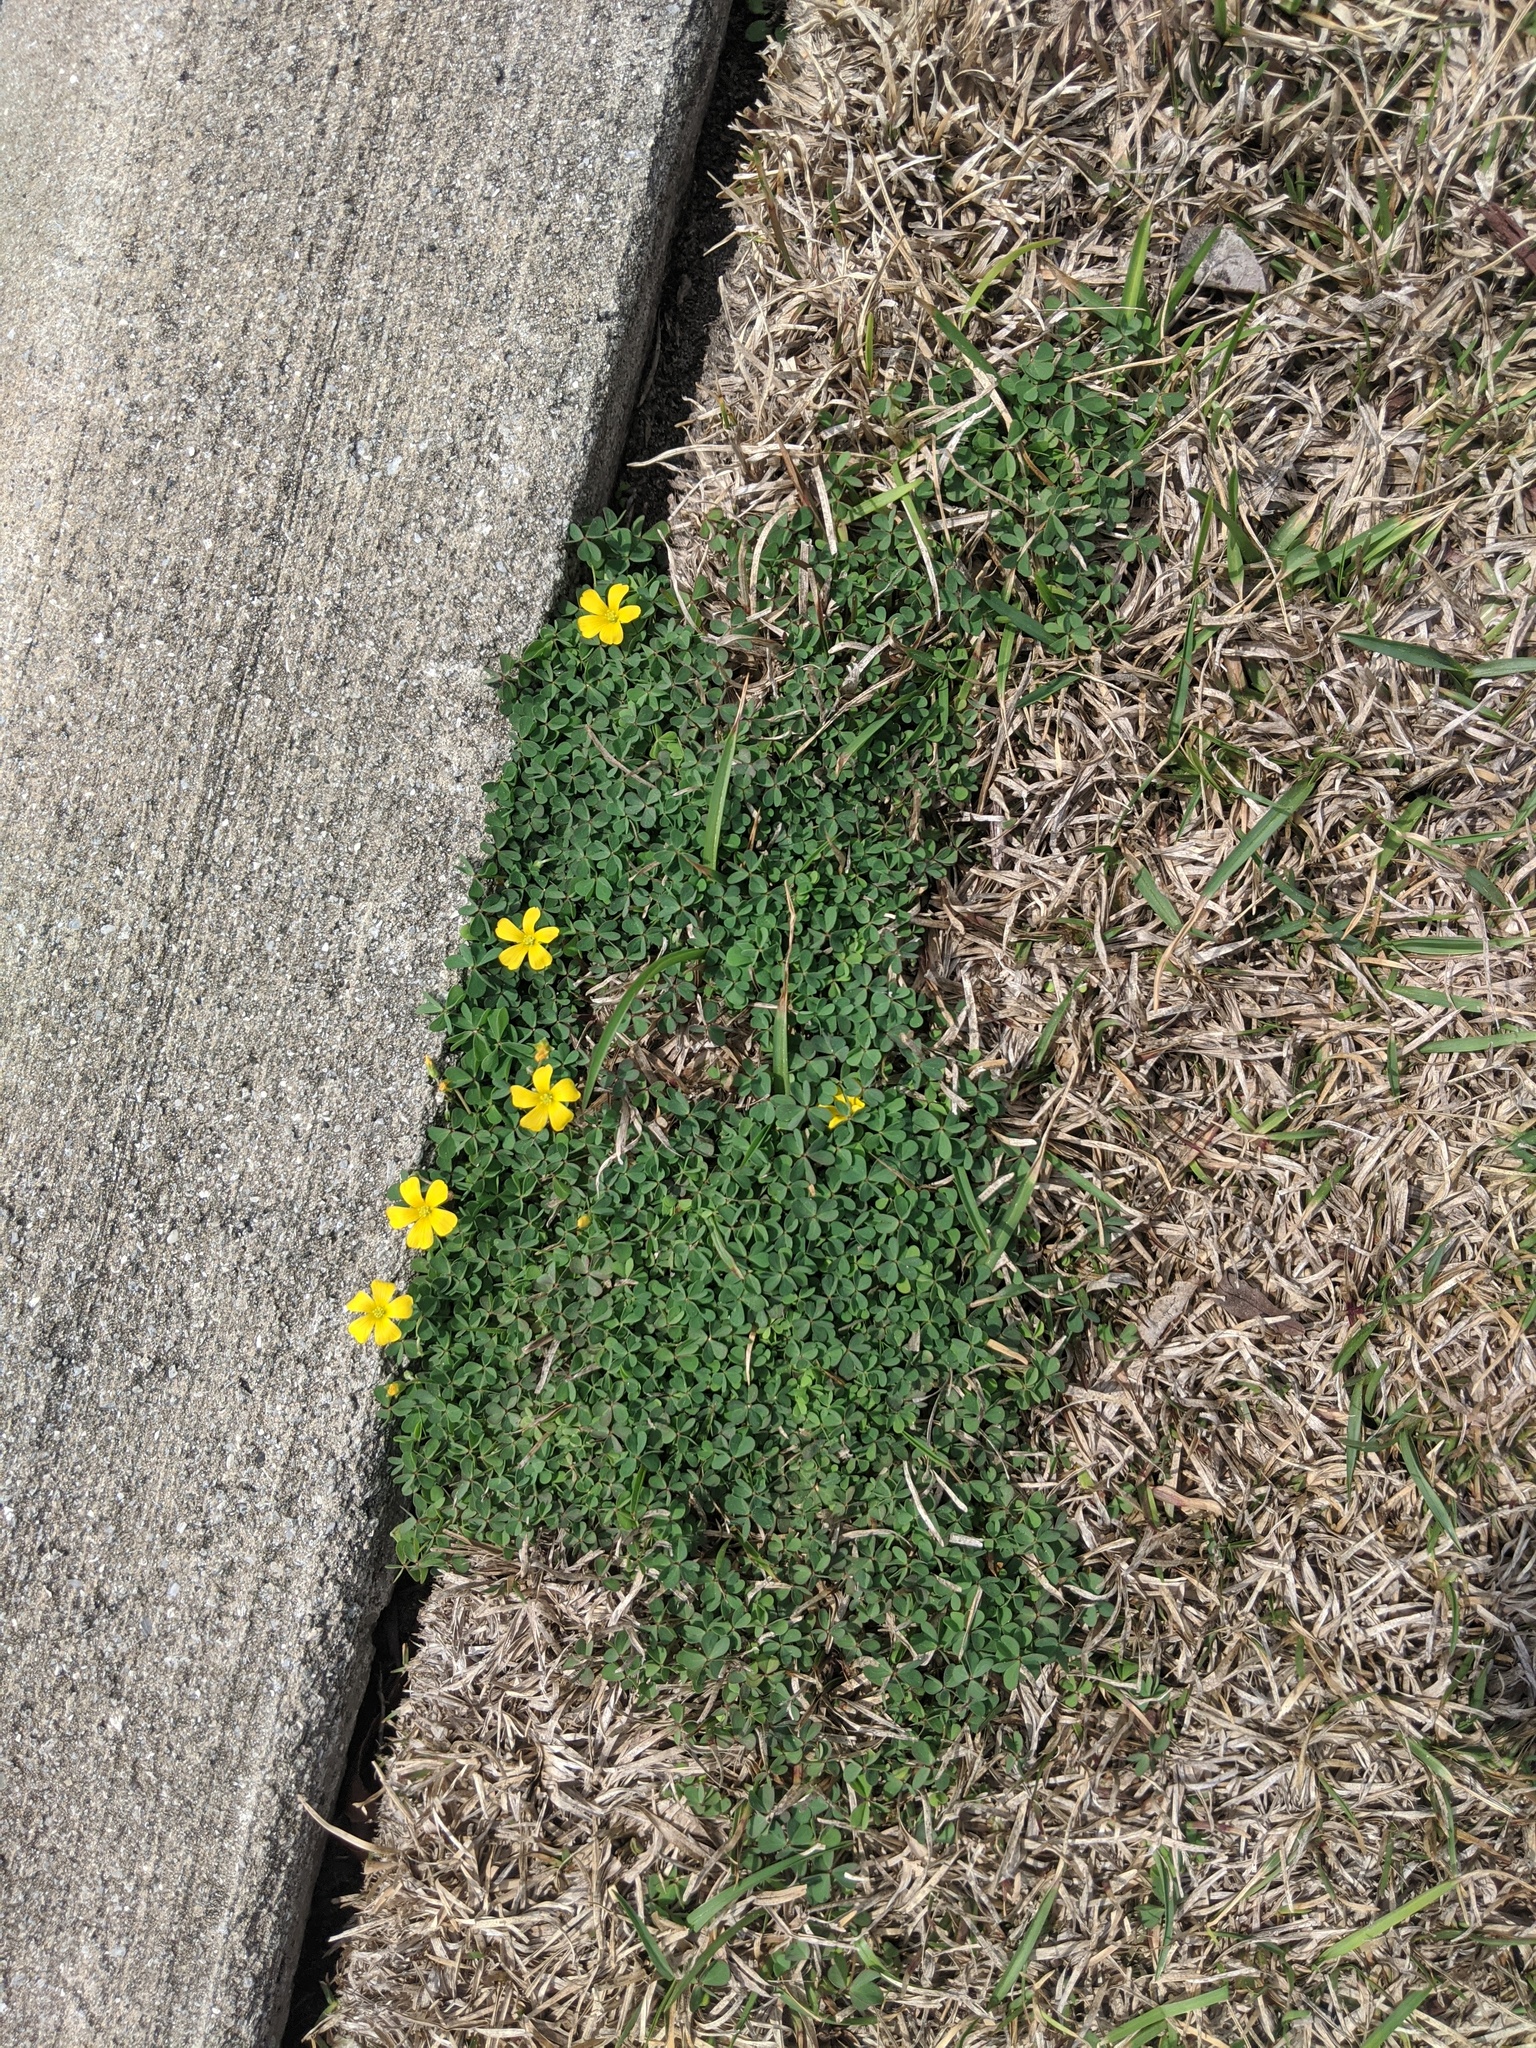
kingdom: Plantae
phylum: Tracheophyta
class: Magnoliopsida
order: Oxalidales
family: Oxalidaceae
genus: Oxalis
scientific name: Oxalis corniculata
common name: Procumbent yellow-sorrel
